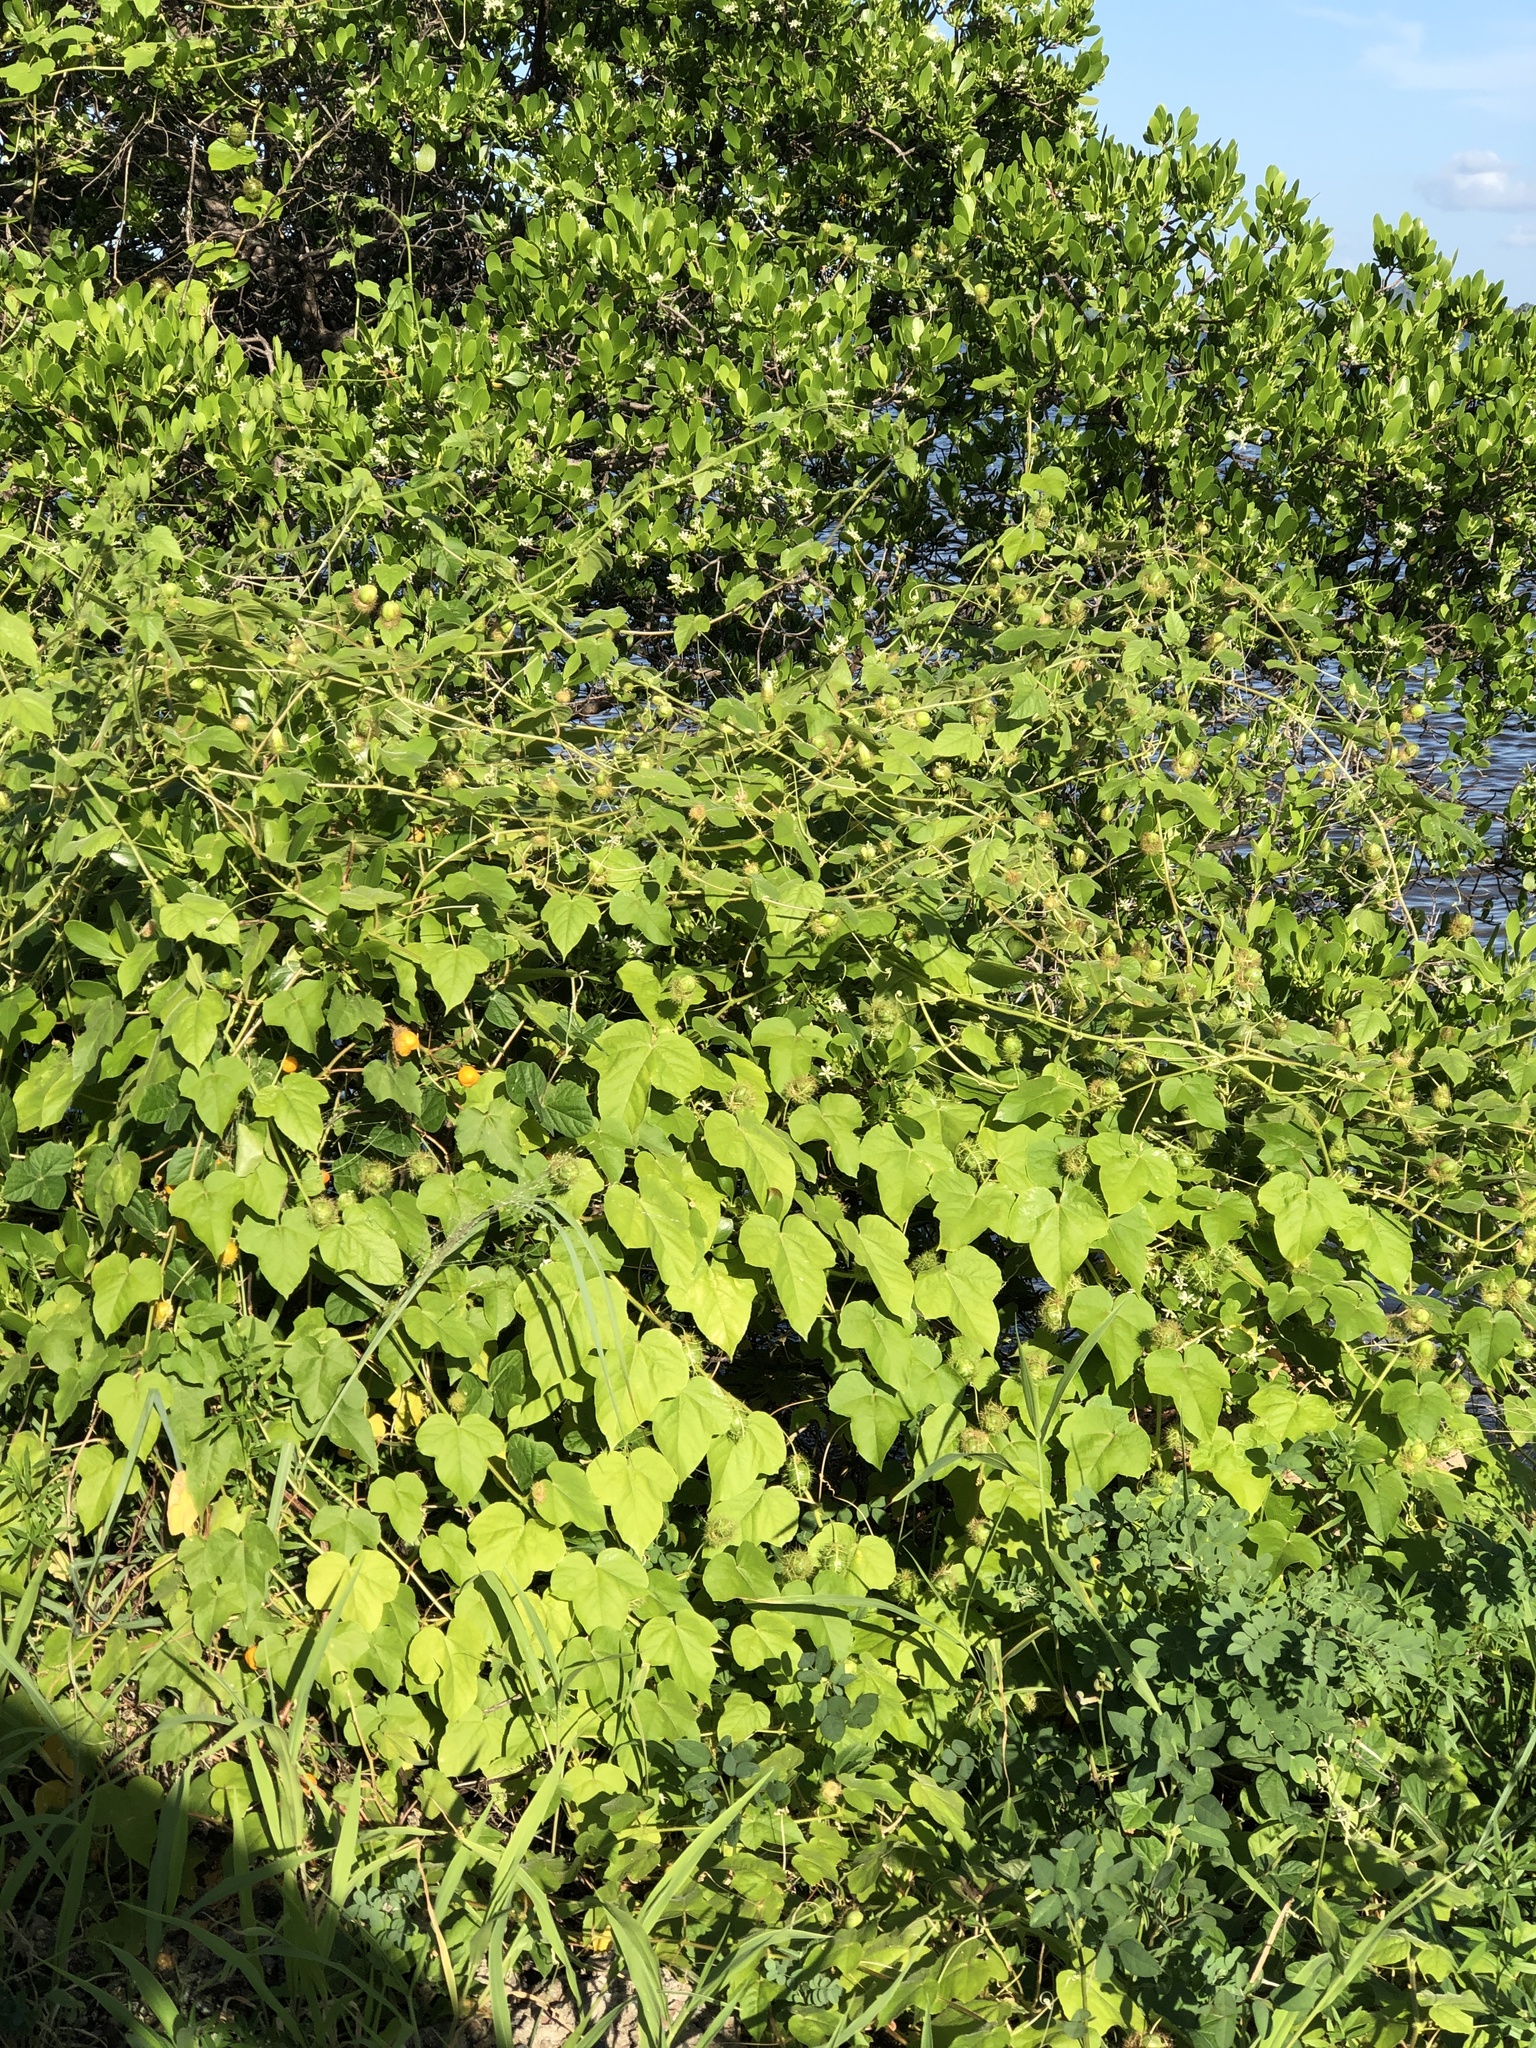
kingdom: Plantae
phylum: Tracheophyta
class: Magnoliopsida
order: Malpighiales
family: Passifloraceae
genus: Passiflora
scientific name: Passiflora foetida
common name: Fetid passionflower
